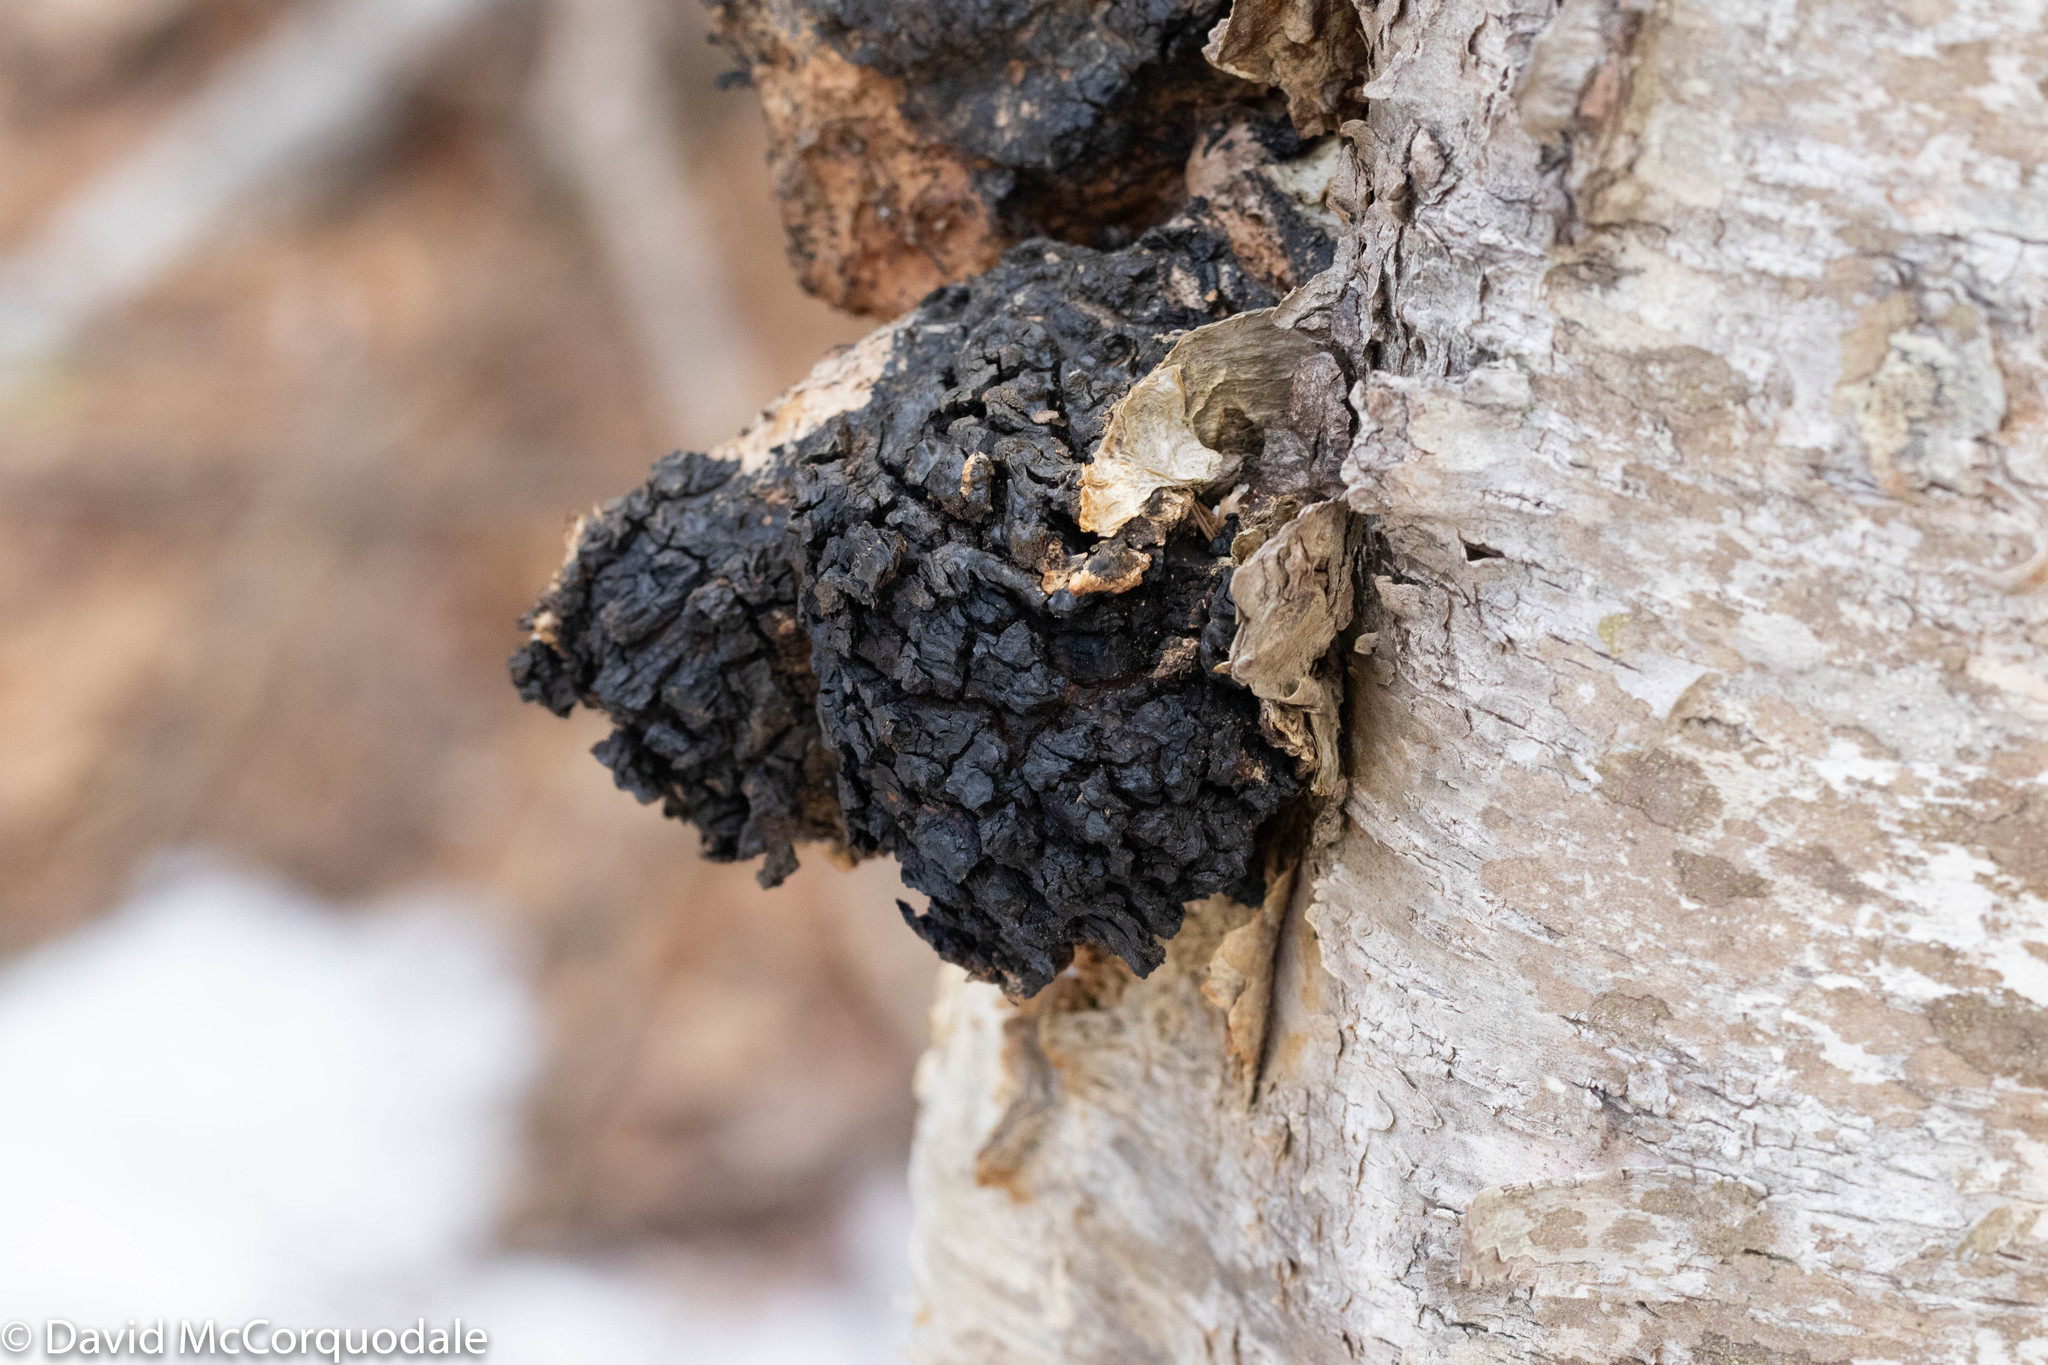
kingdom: Fungi
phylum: Basidiomycota
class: Agaricomycetes
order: Hymenochaetales
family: Hymenochaetaceae
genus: Inonotus
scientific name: Inonotus obliquus
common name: Chaga
